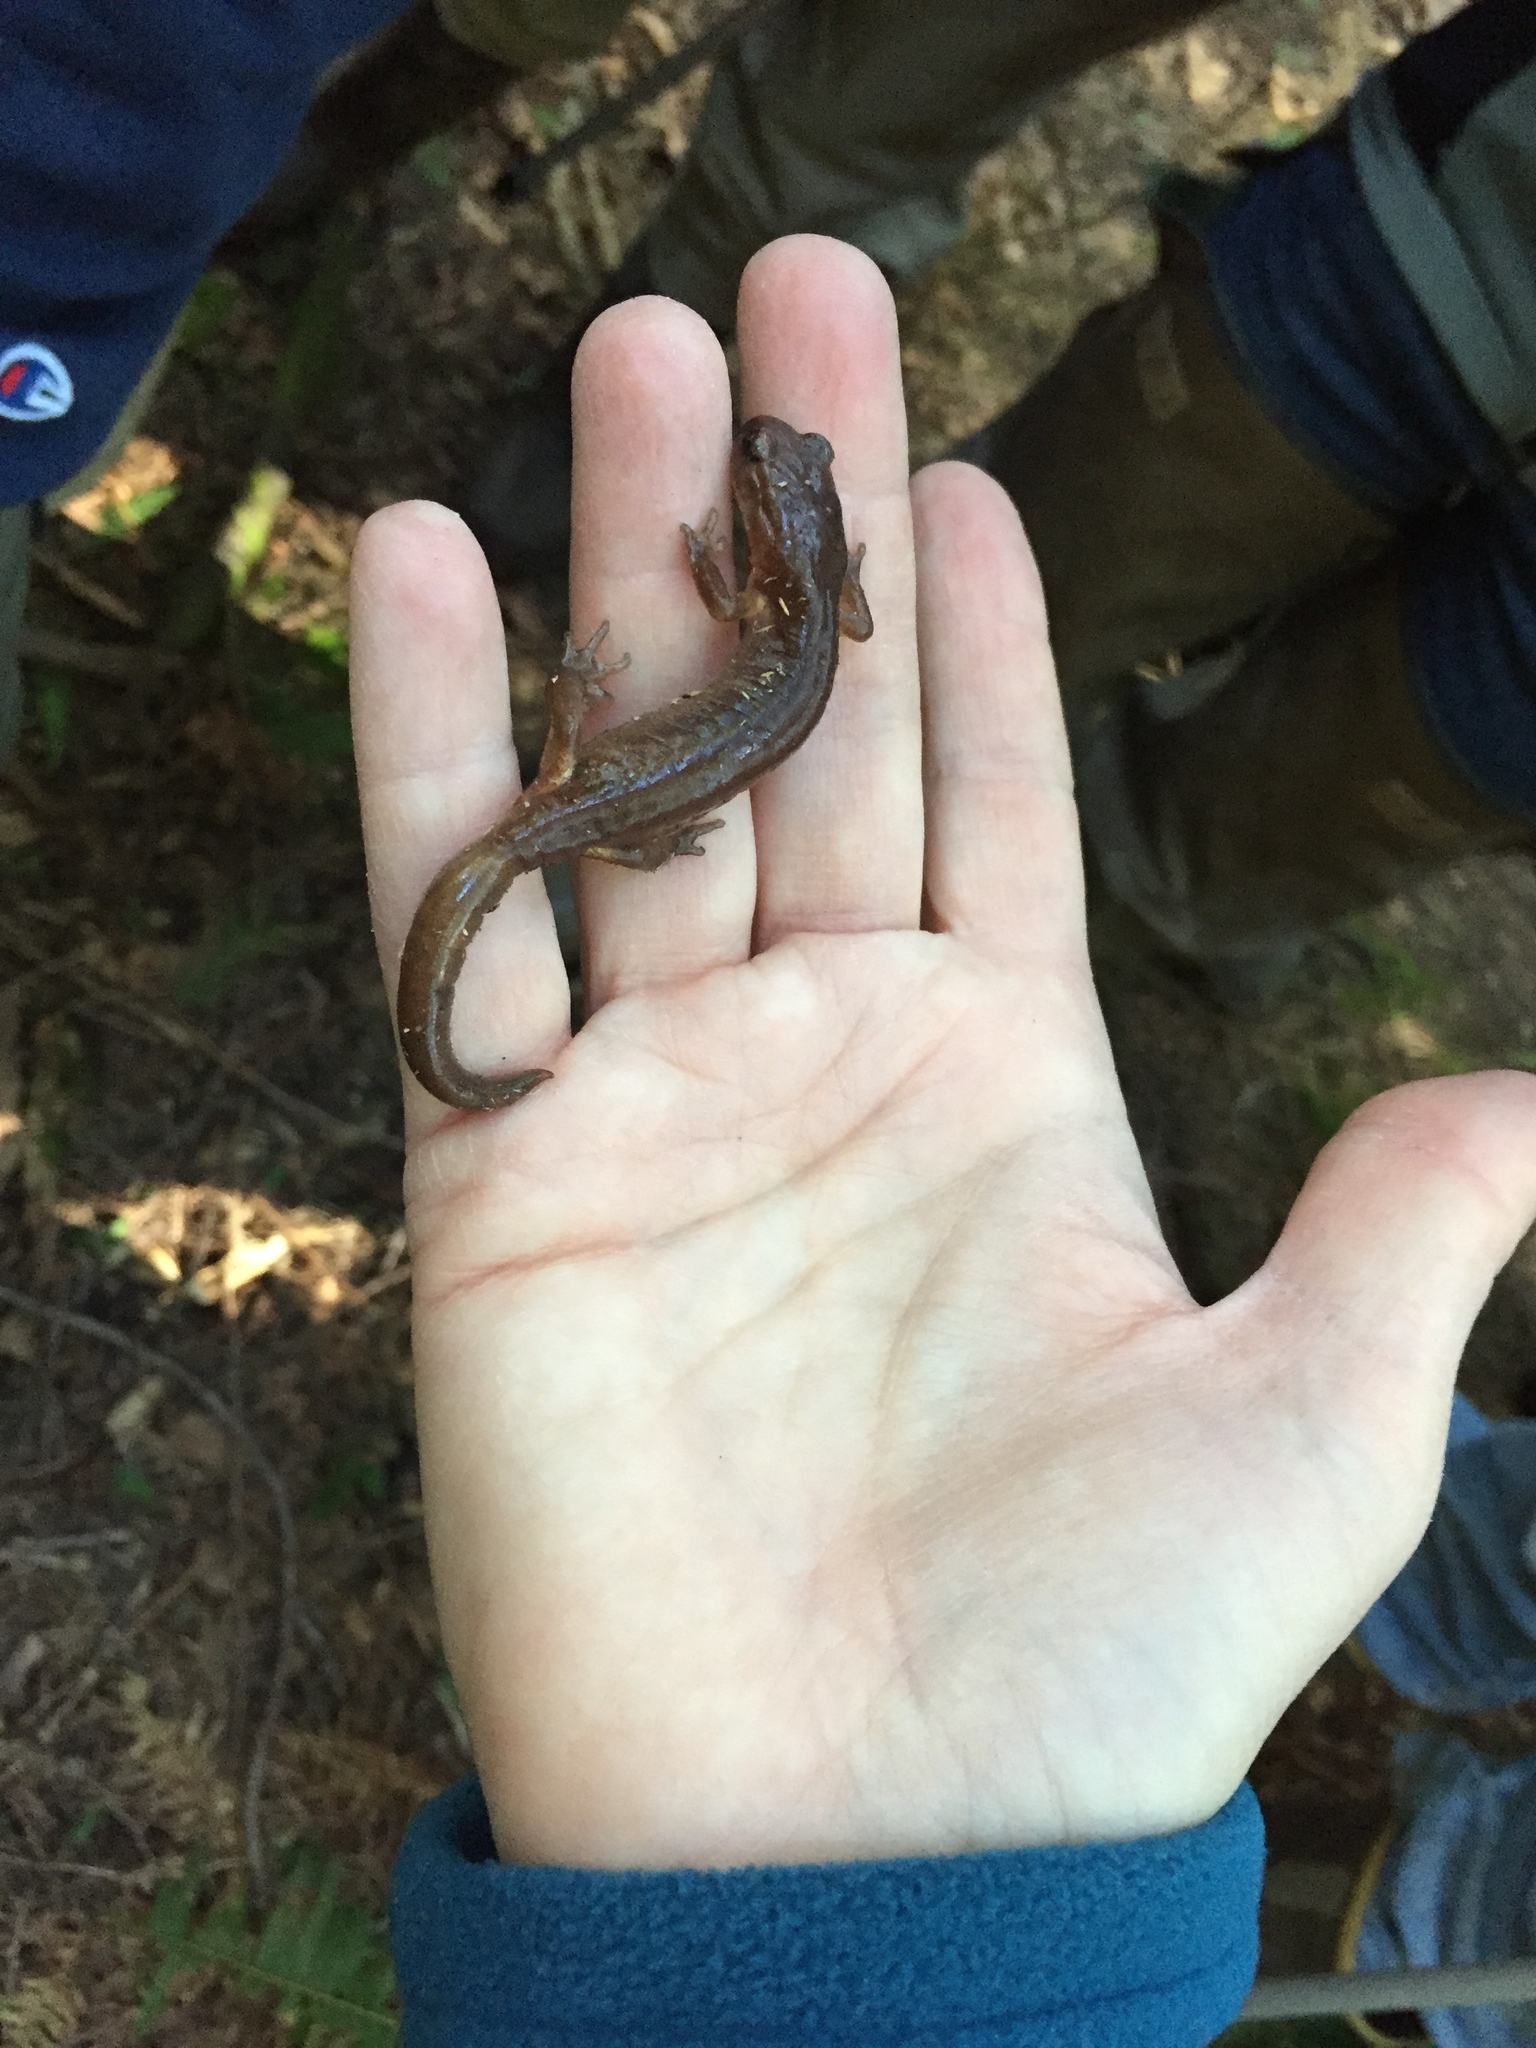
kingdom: Animalia
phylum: Chordata
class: Amphibia
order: Caudata
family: Plethodontidae
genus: Ensatina
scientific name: Ensatina eschscholtzii
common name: Ensatina
